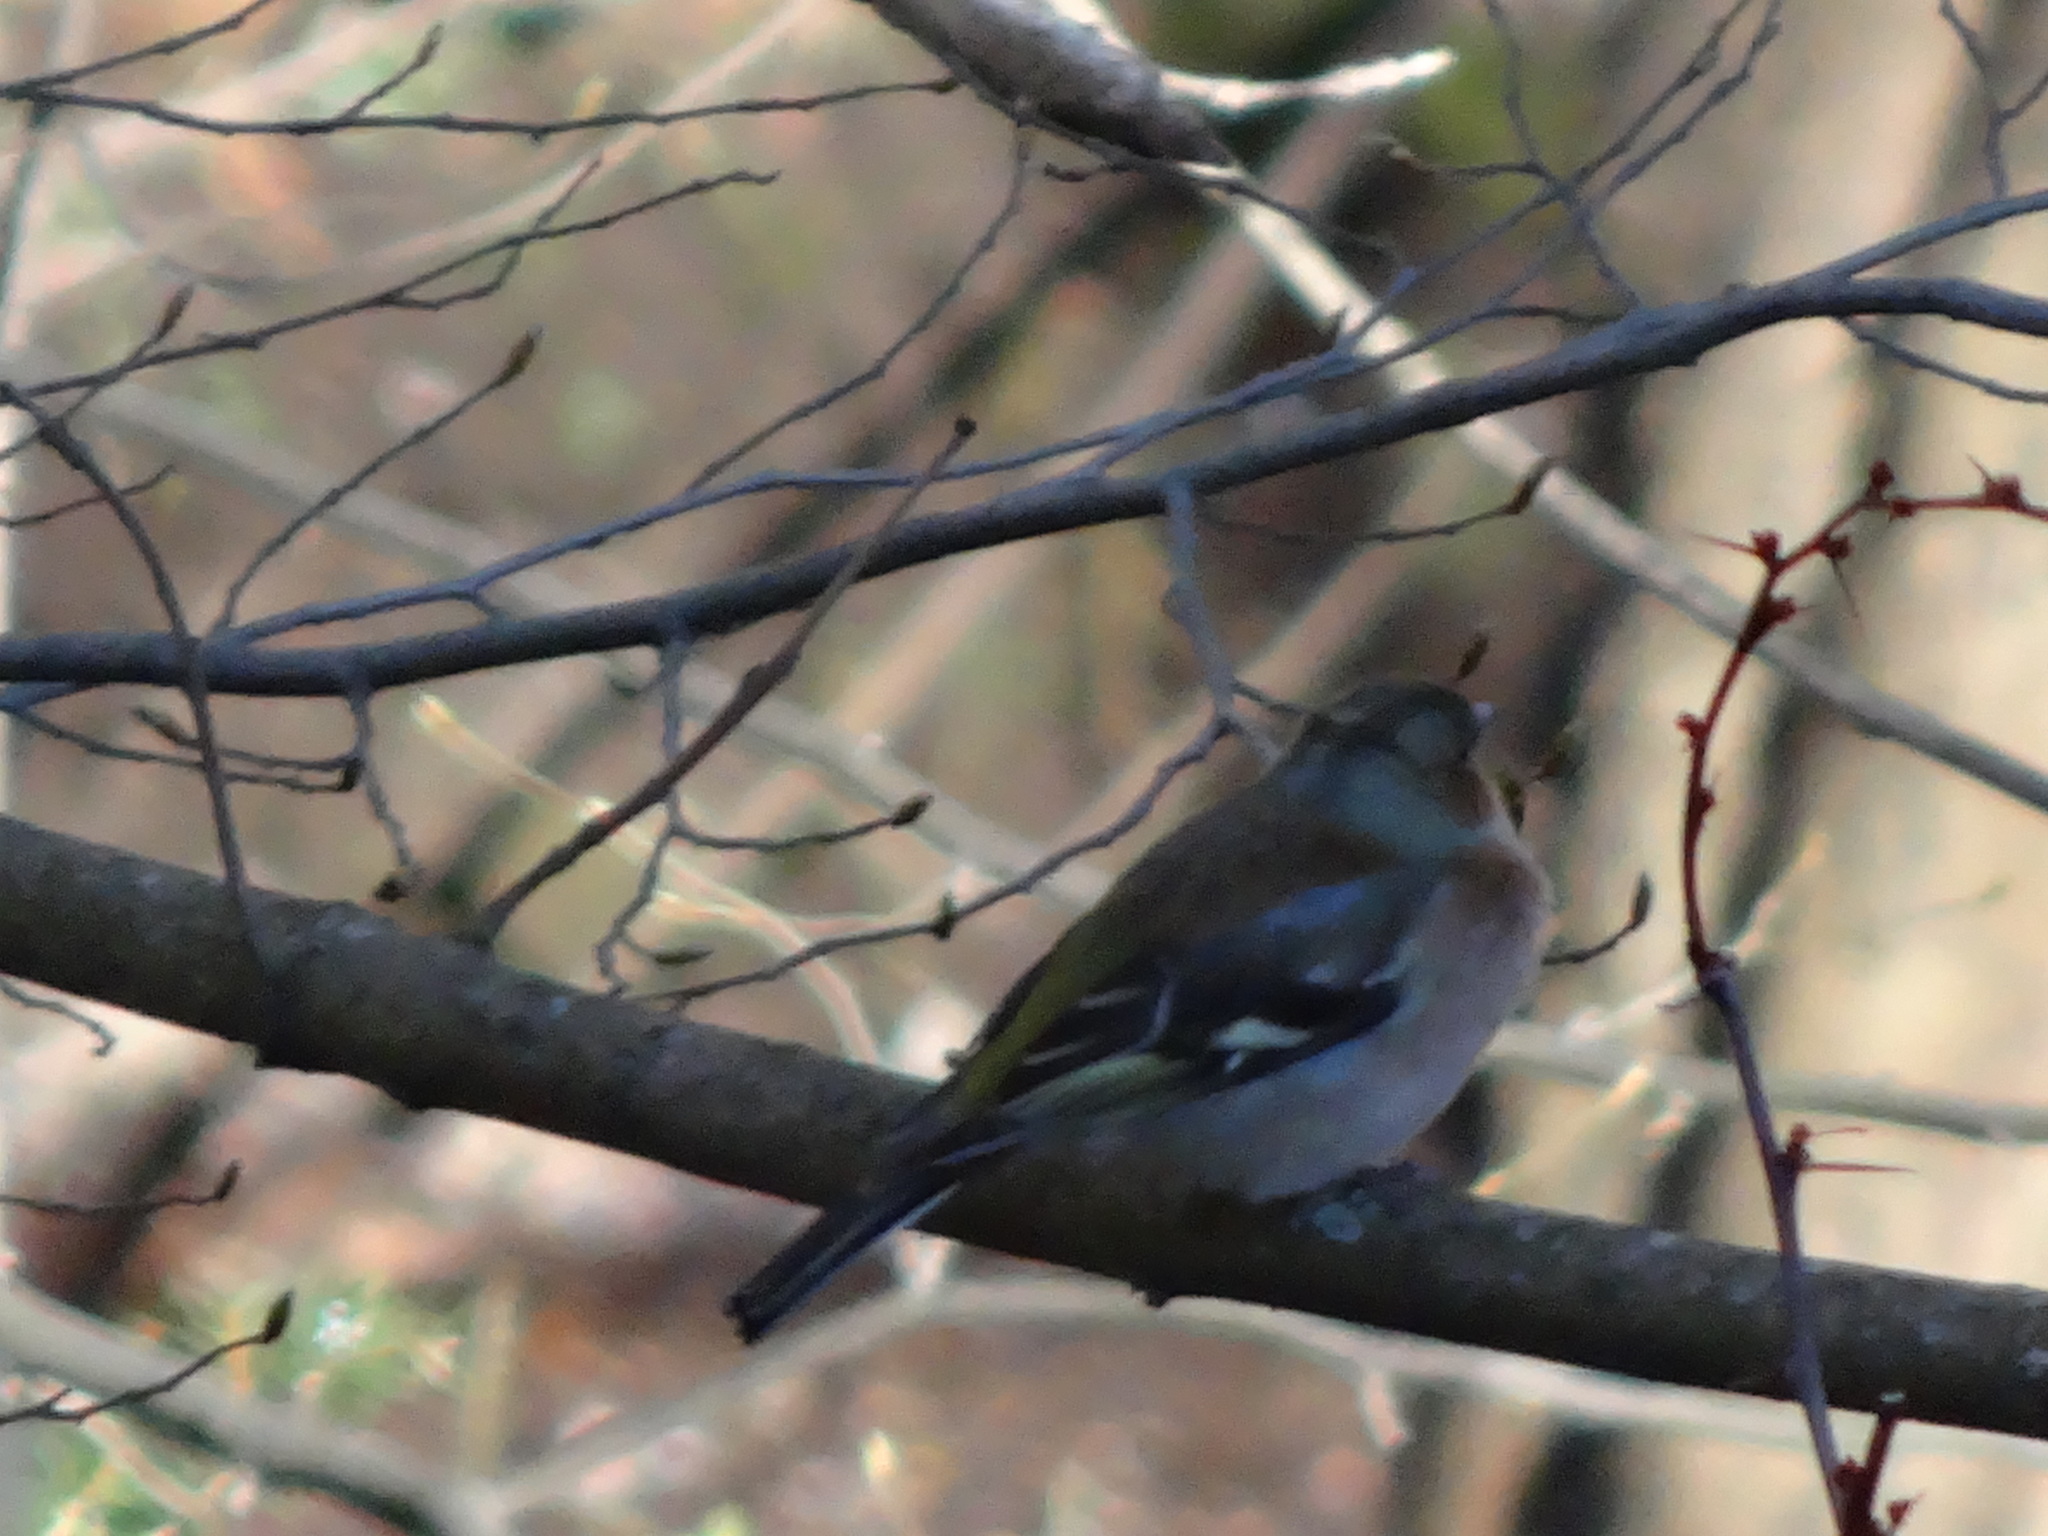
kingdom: Animalia
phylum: Chordata
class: Aves
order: Passeriformes
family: Fringillidae
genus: Fringilla
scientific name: Fringilla coelebs
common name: Common chaffinch
